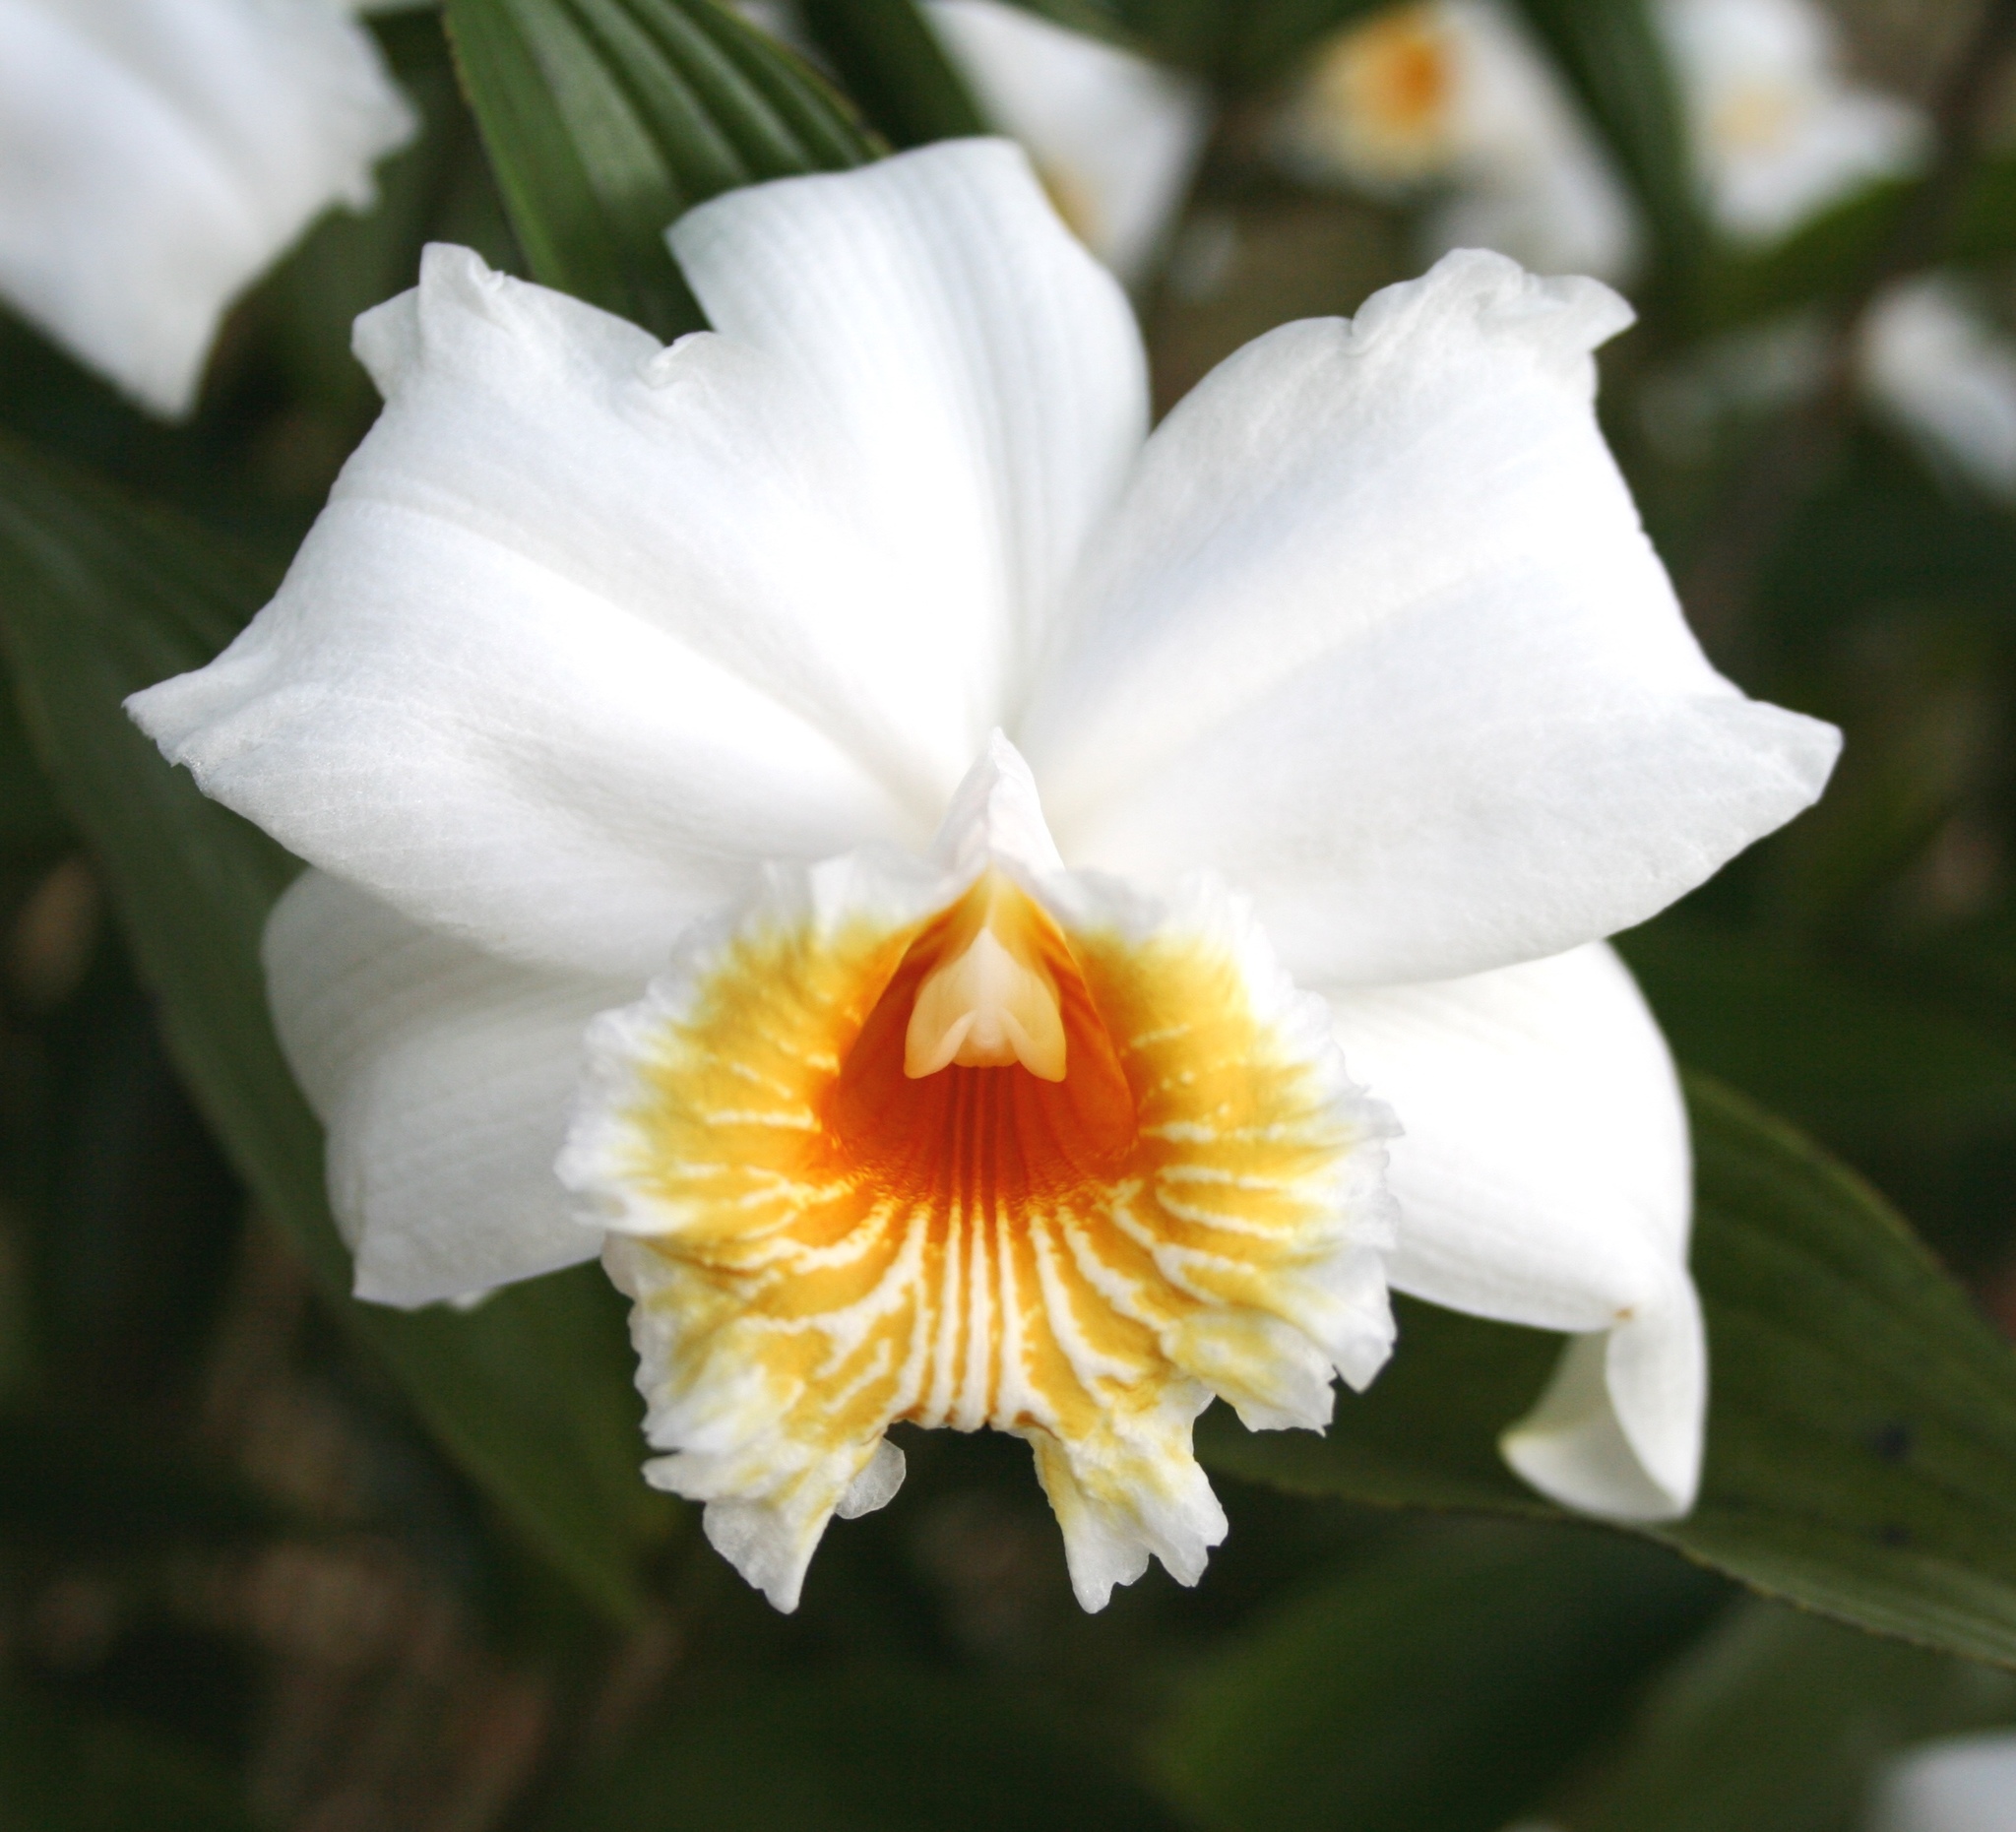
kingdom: Plantae
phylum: Tracheophyta
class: Liliopsida
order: Asparagales
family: Orchidaceae
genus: Sobralia
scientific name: Sobralia chrysostoma
